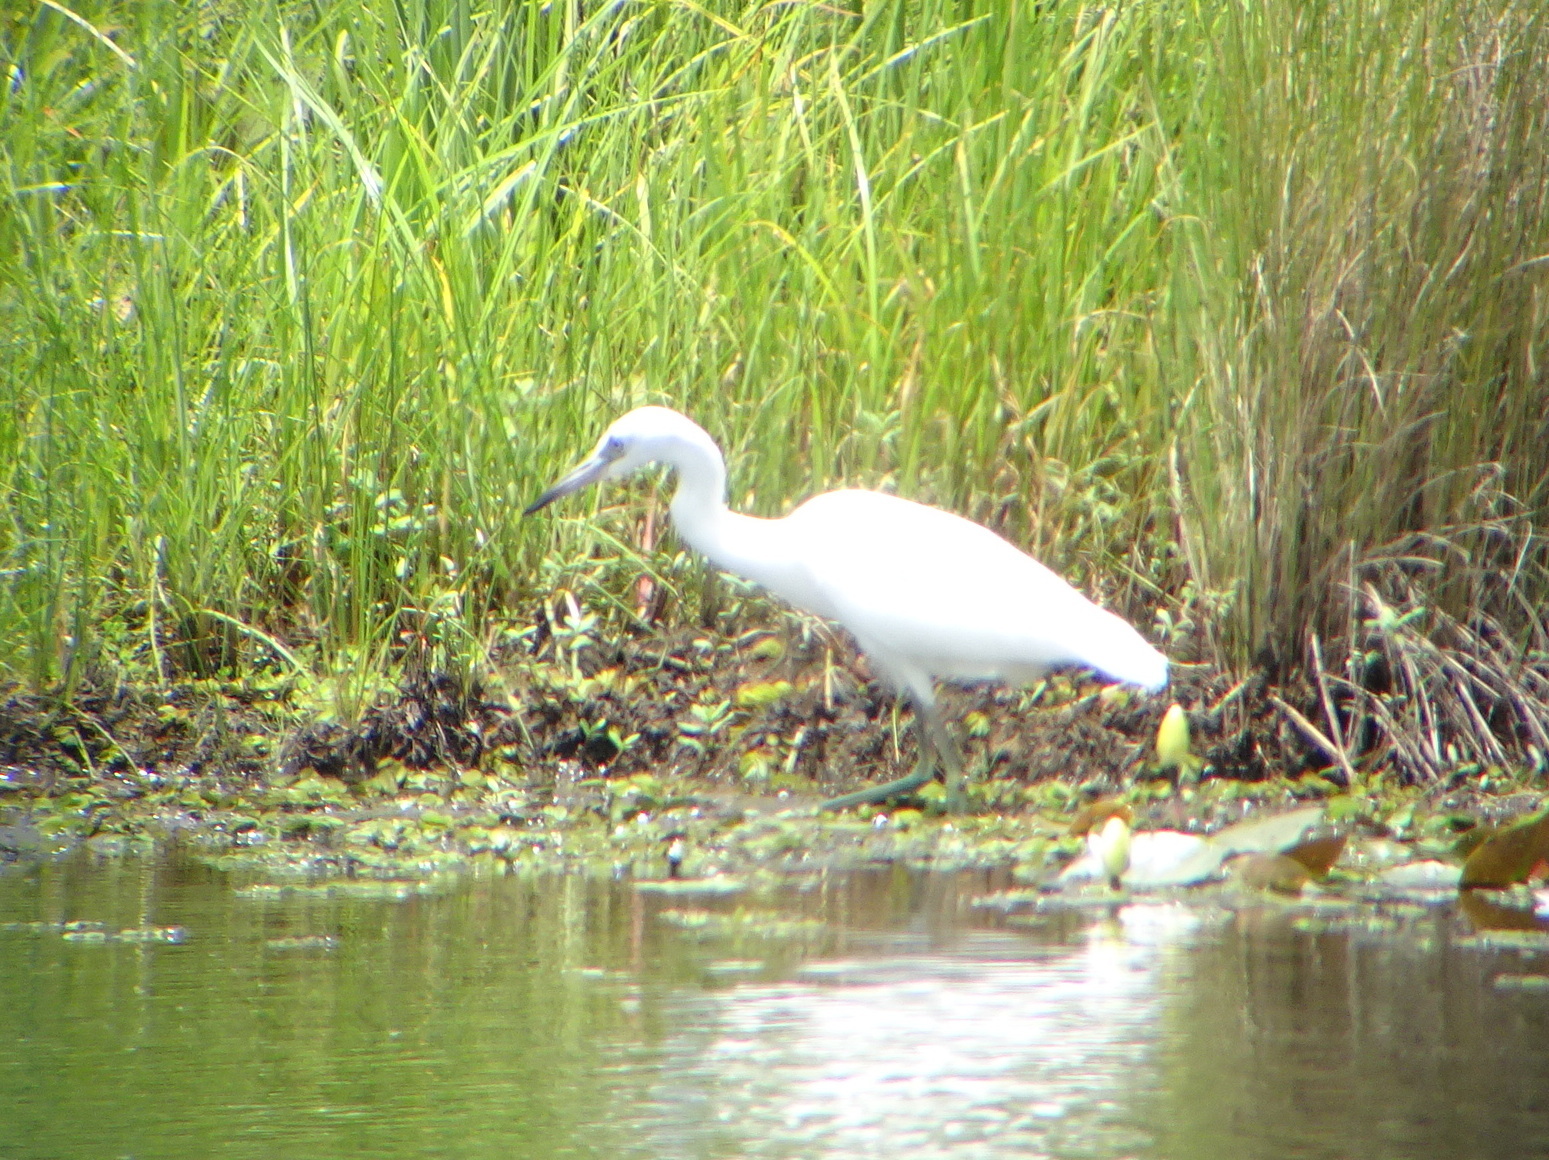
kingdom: Animalia
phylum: Chordata
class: Aves
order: Pelecaniformes
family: Ardeidae
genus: Egretta
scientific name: Egretta caerulea
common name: Little blue heron
